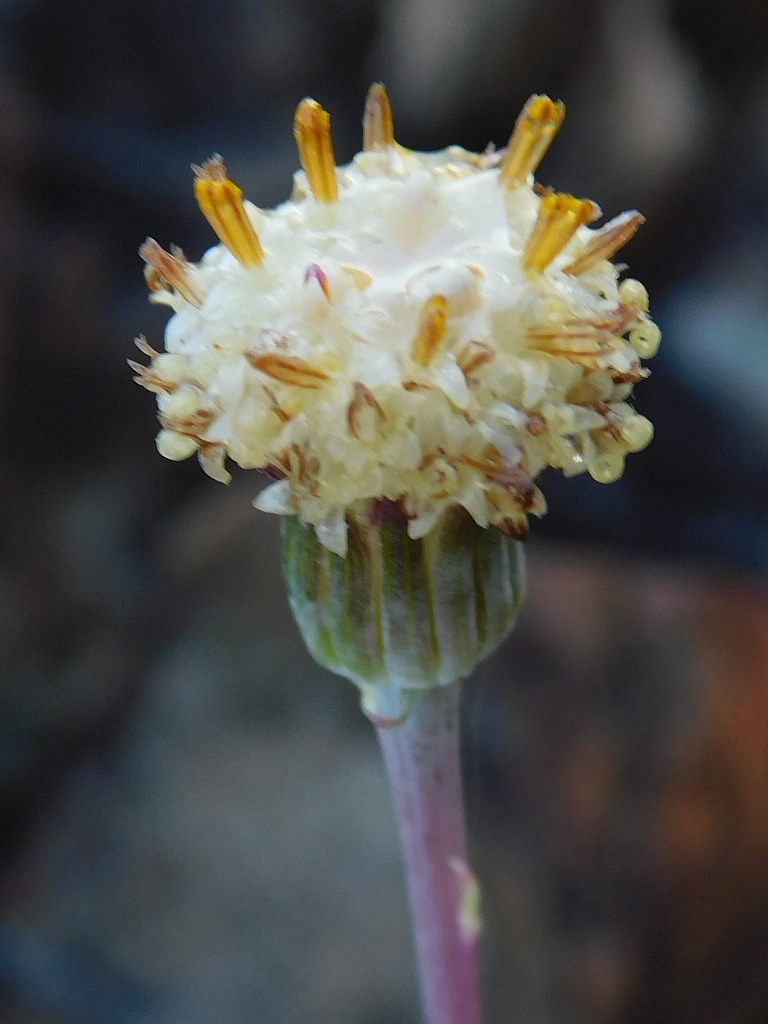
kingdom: Plantae
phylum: Tracheophyta
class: Magnoliopsida
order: Asterales
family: Asteraceae
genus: Curio
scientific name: Curio archeri
